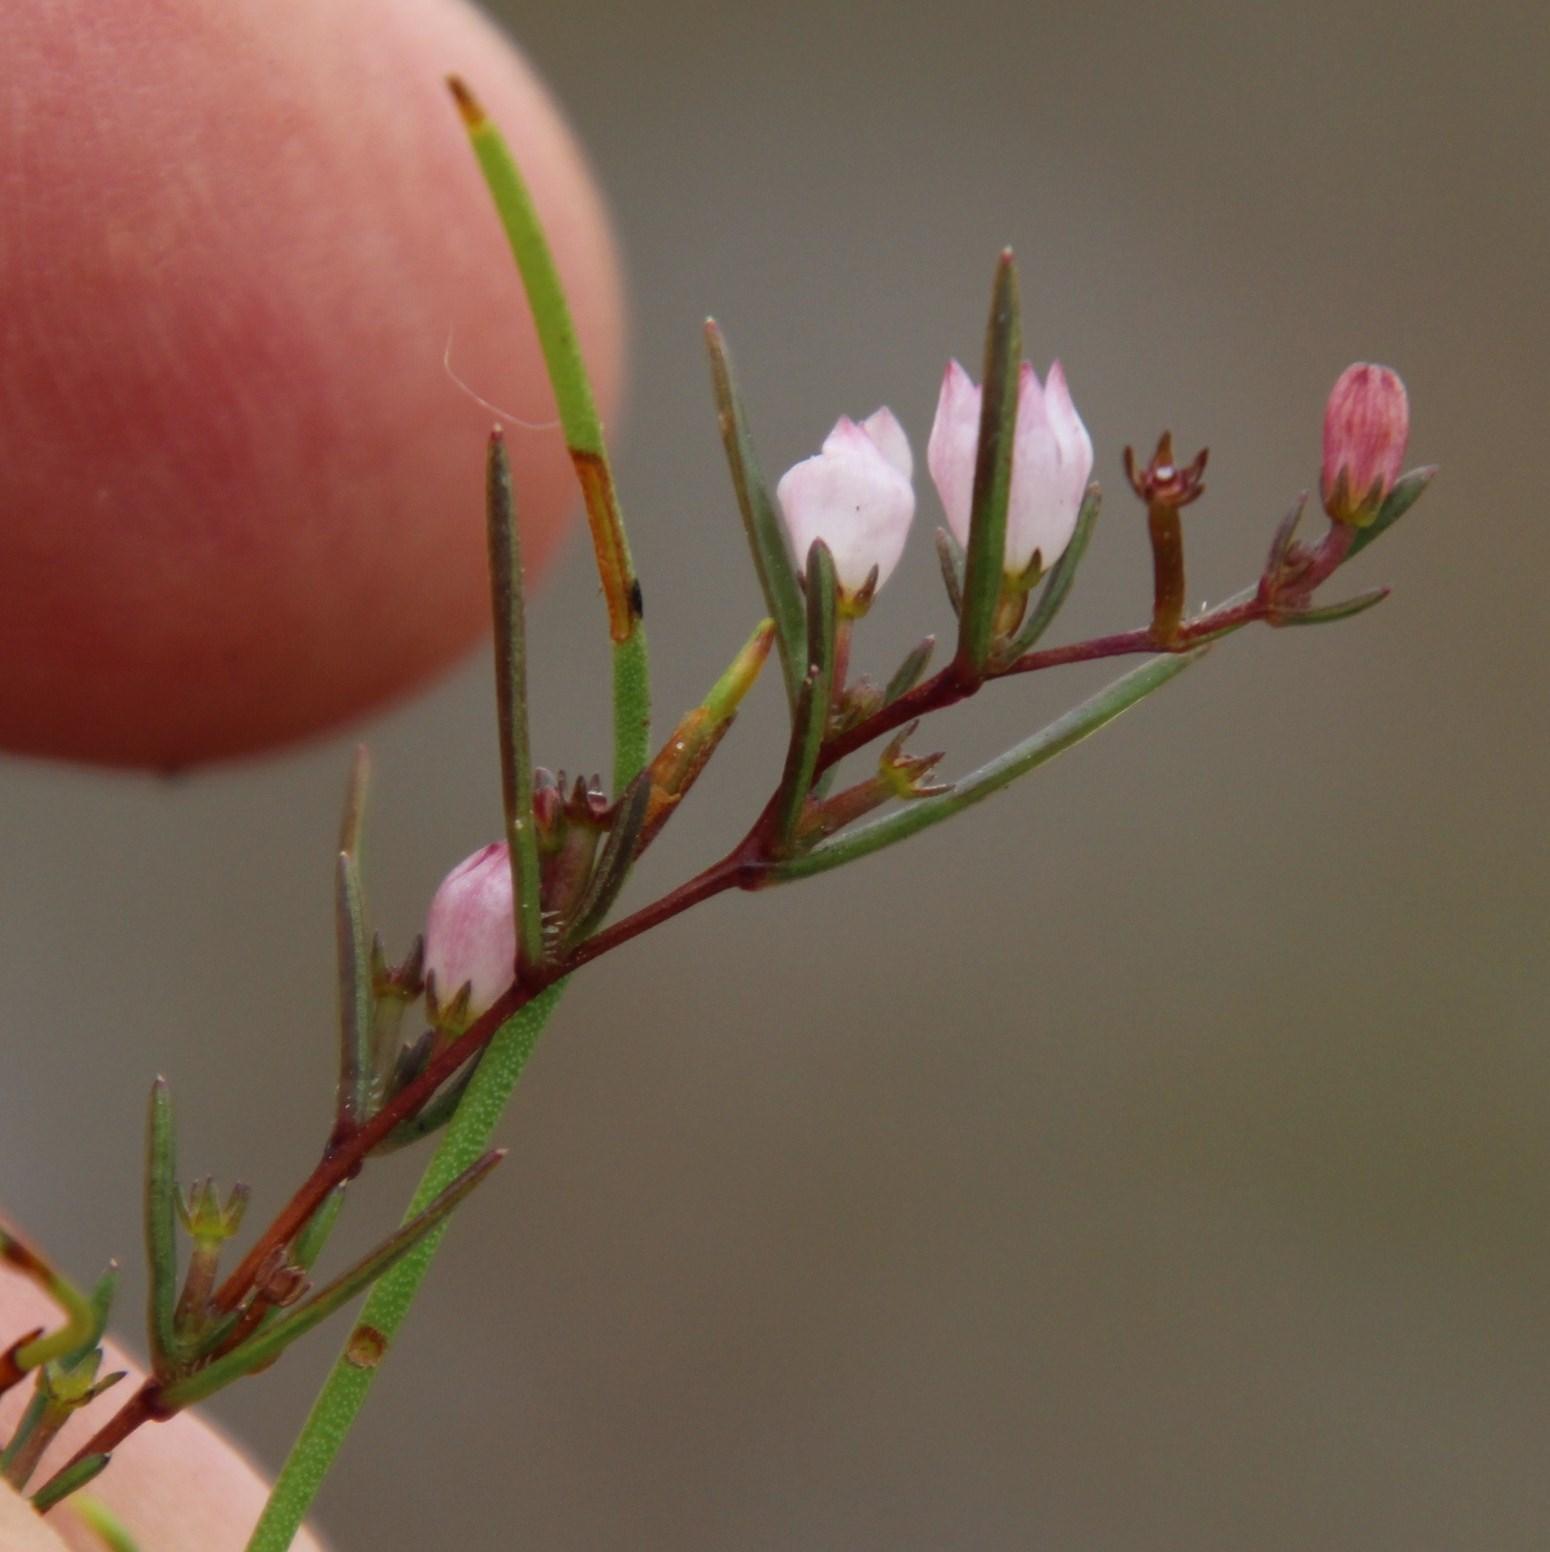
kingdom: Plantae
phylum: Tracheophyta
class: Magnoliopsida
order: Asterales
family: Campanulaceae
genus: Prismatocarpus
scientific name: Prismatocarpus sessilis
